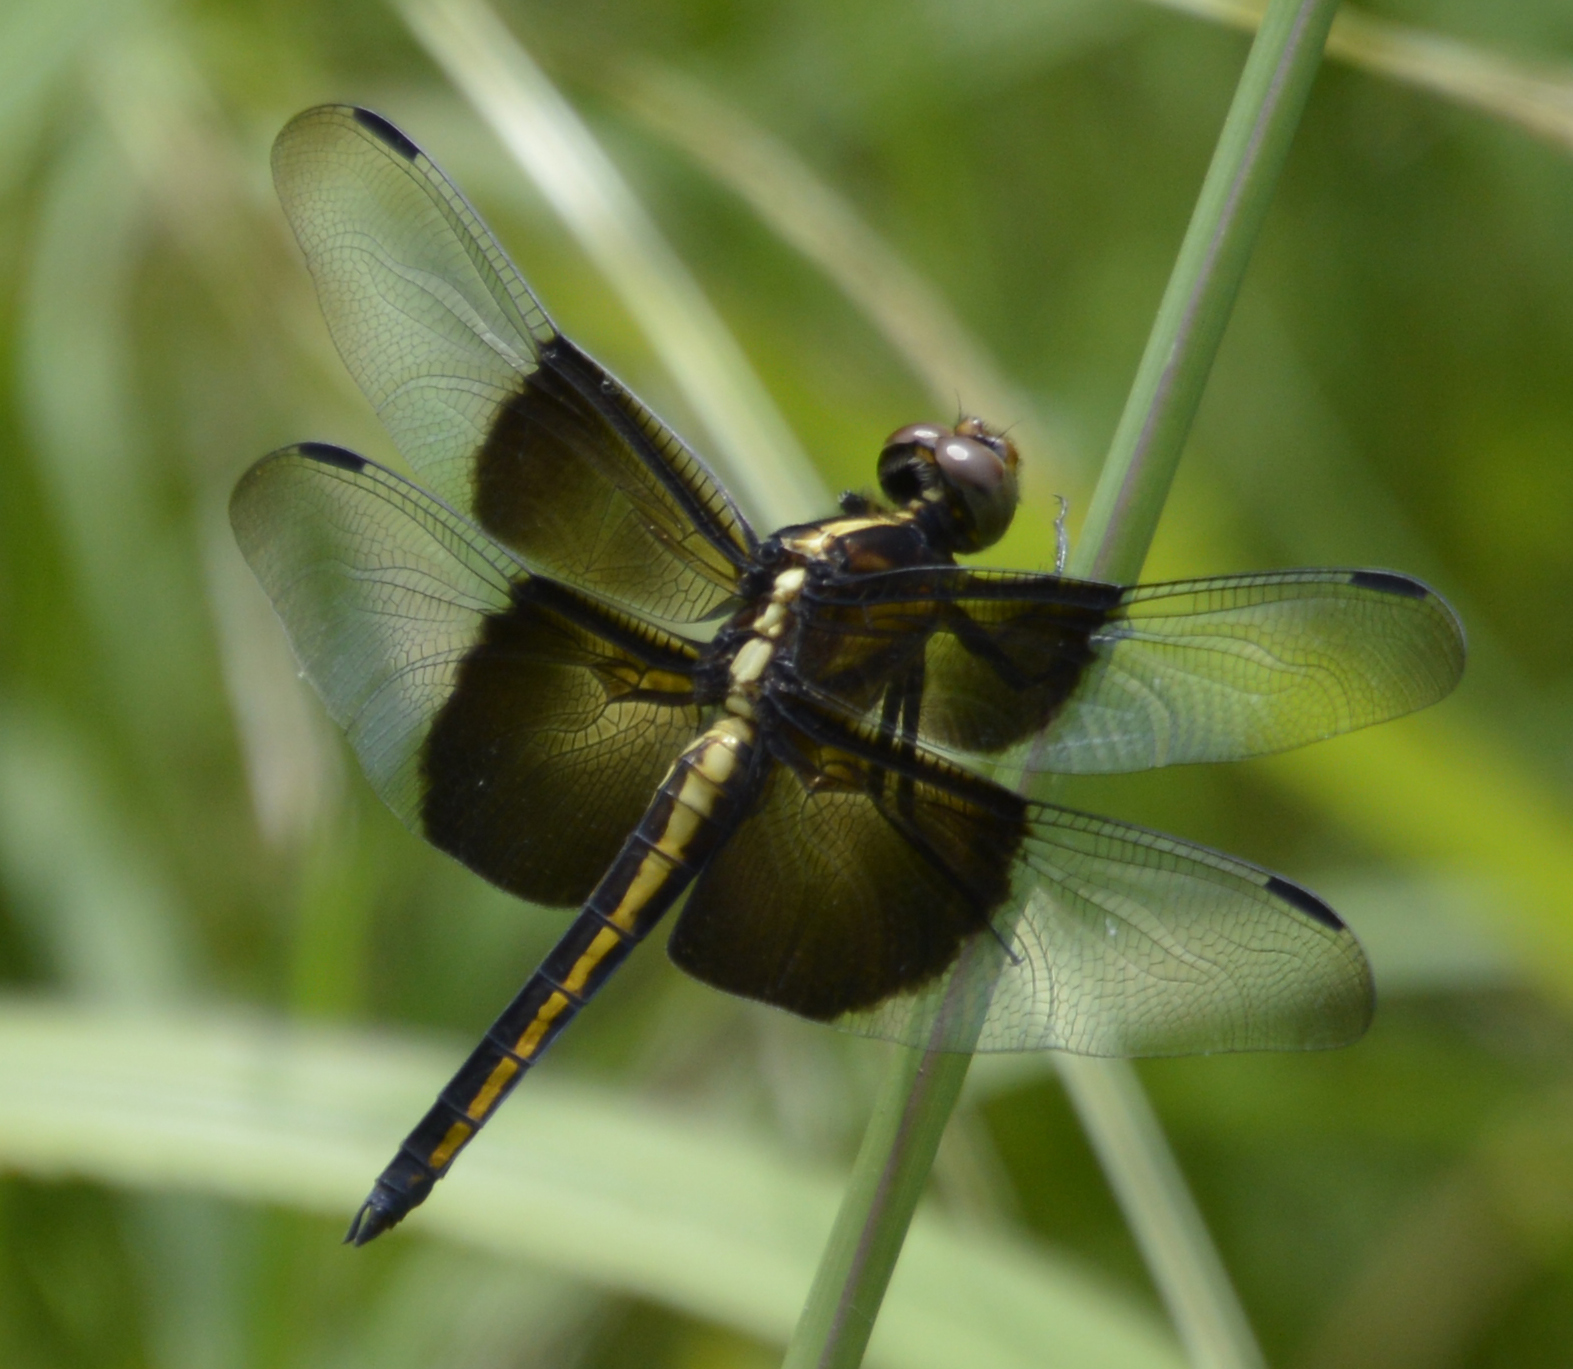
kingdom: Animalia
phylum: Arthropoda
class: Insecta
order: Odonata
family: Libellulidae
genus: Libellula
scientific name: Libellula luctuosa
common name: Widow skimmer
